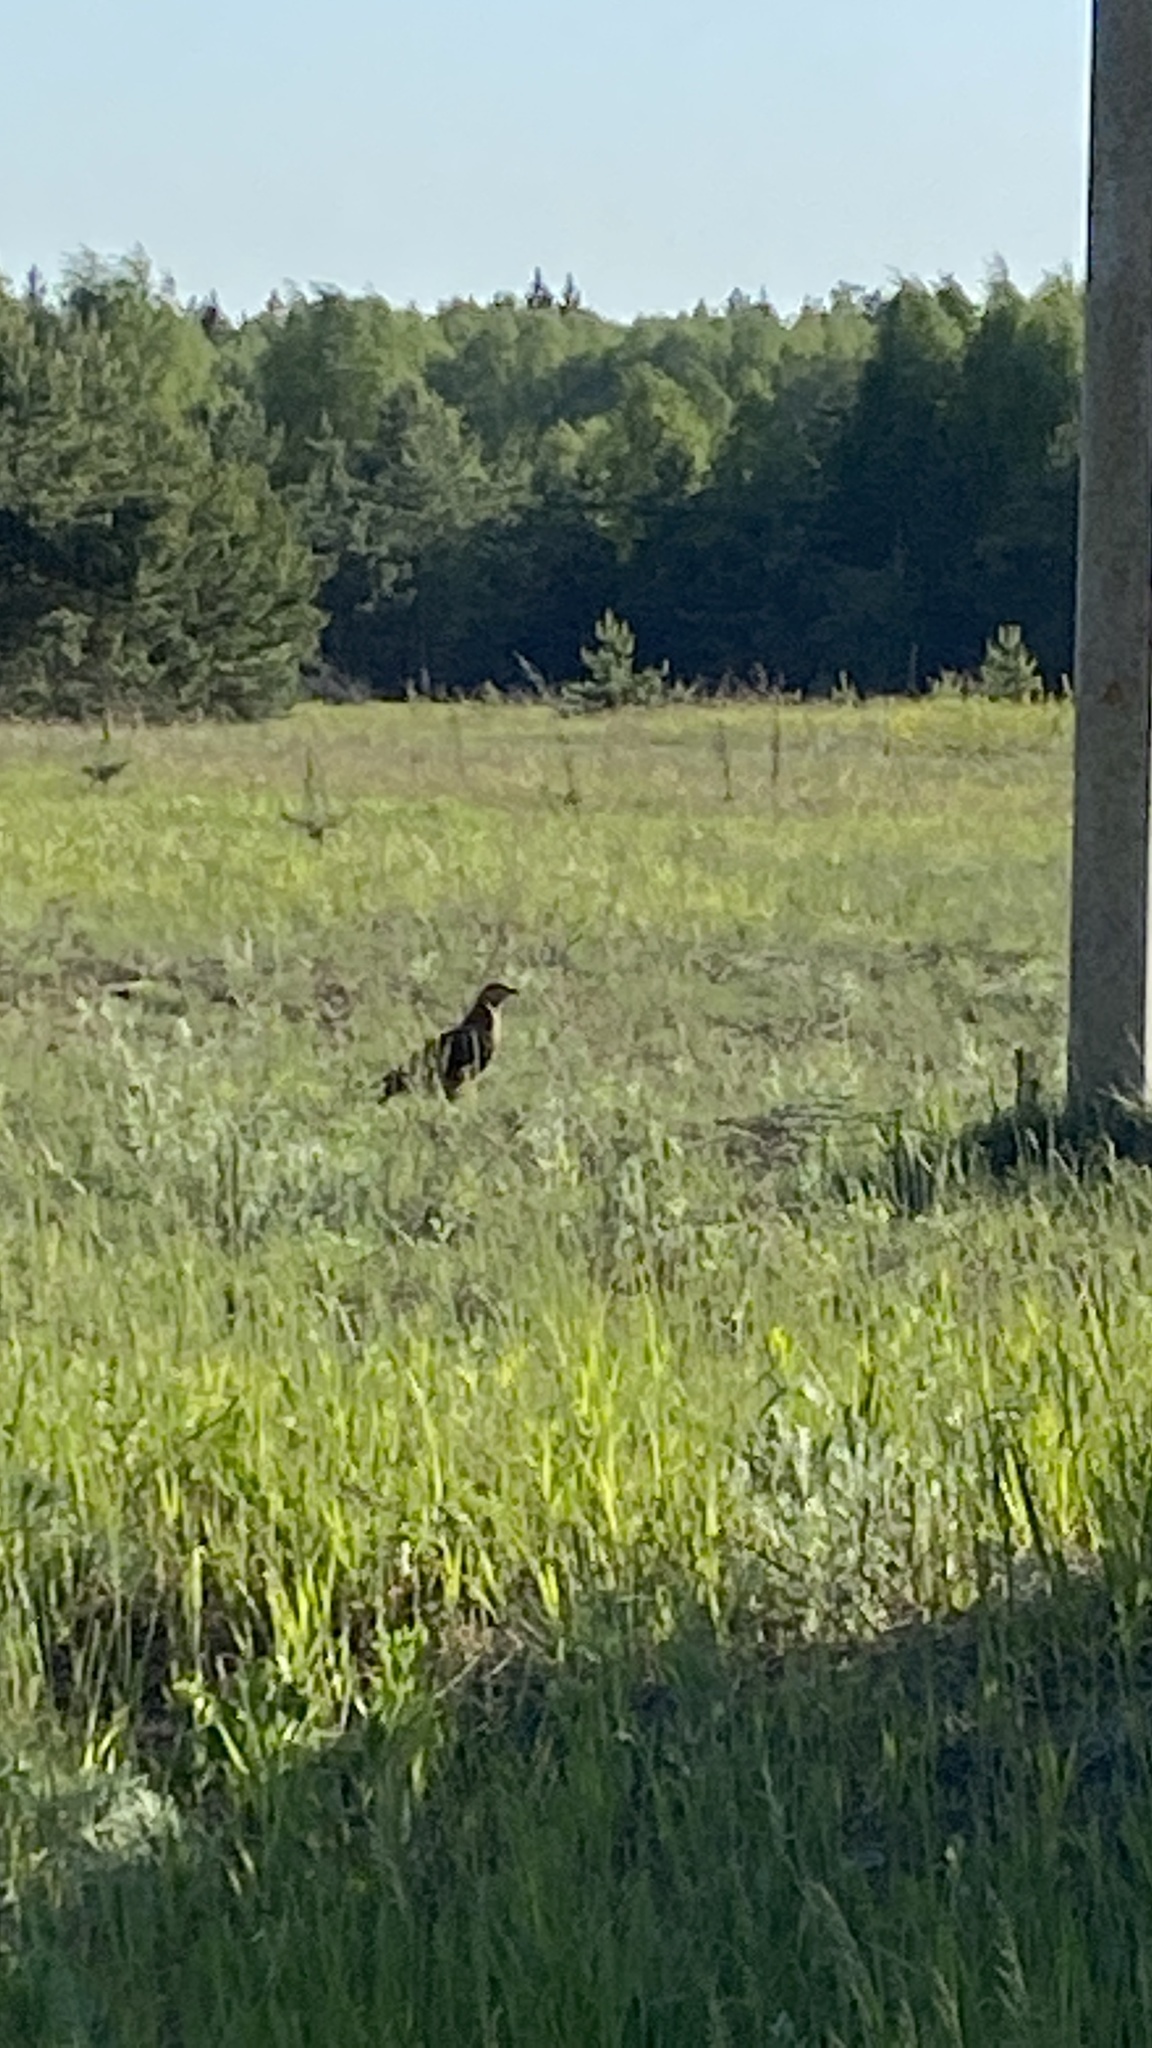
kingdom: Animalia
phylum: Chordata
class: Aves
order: Accipitriformes
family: Accipitridae
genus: Pernis
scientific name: Pernis apivorus
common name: European honey buzzard
